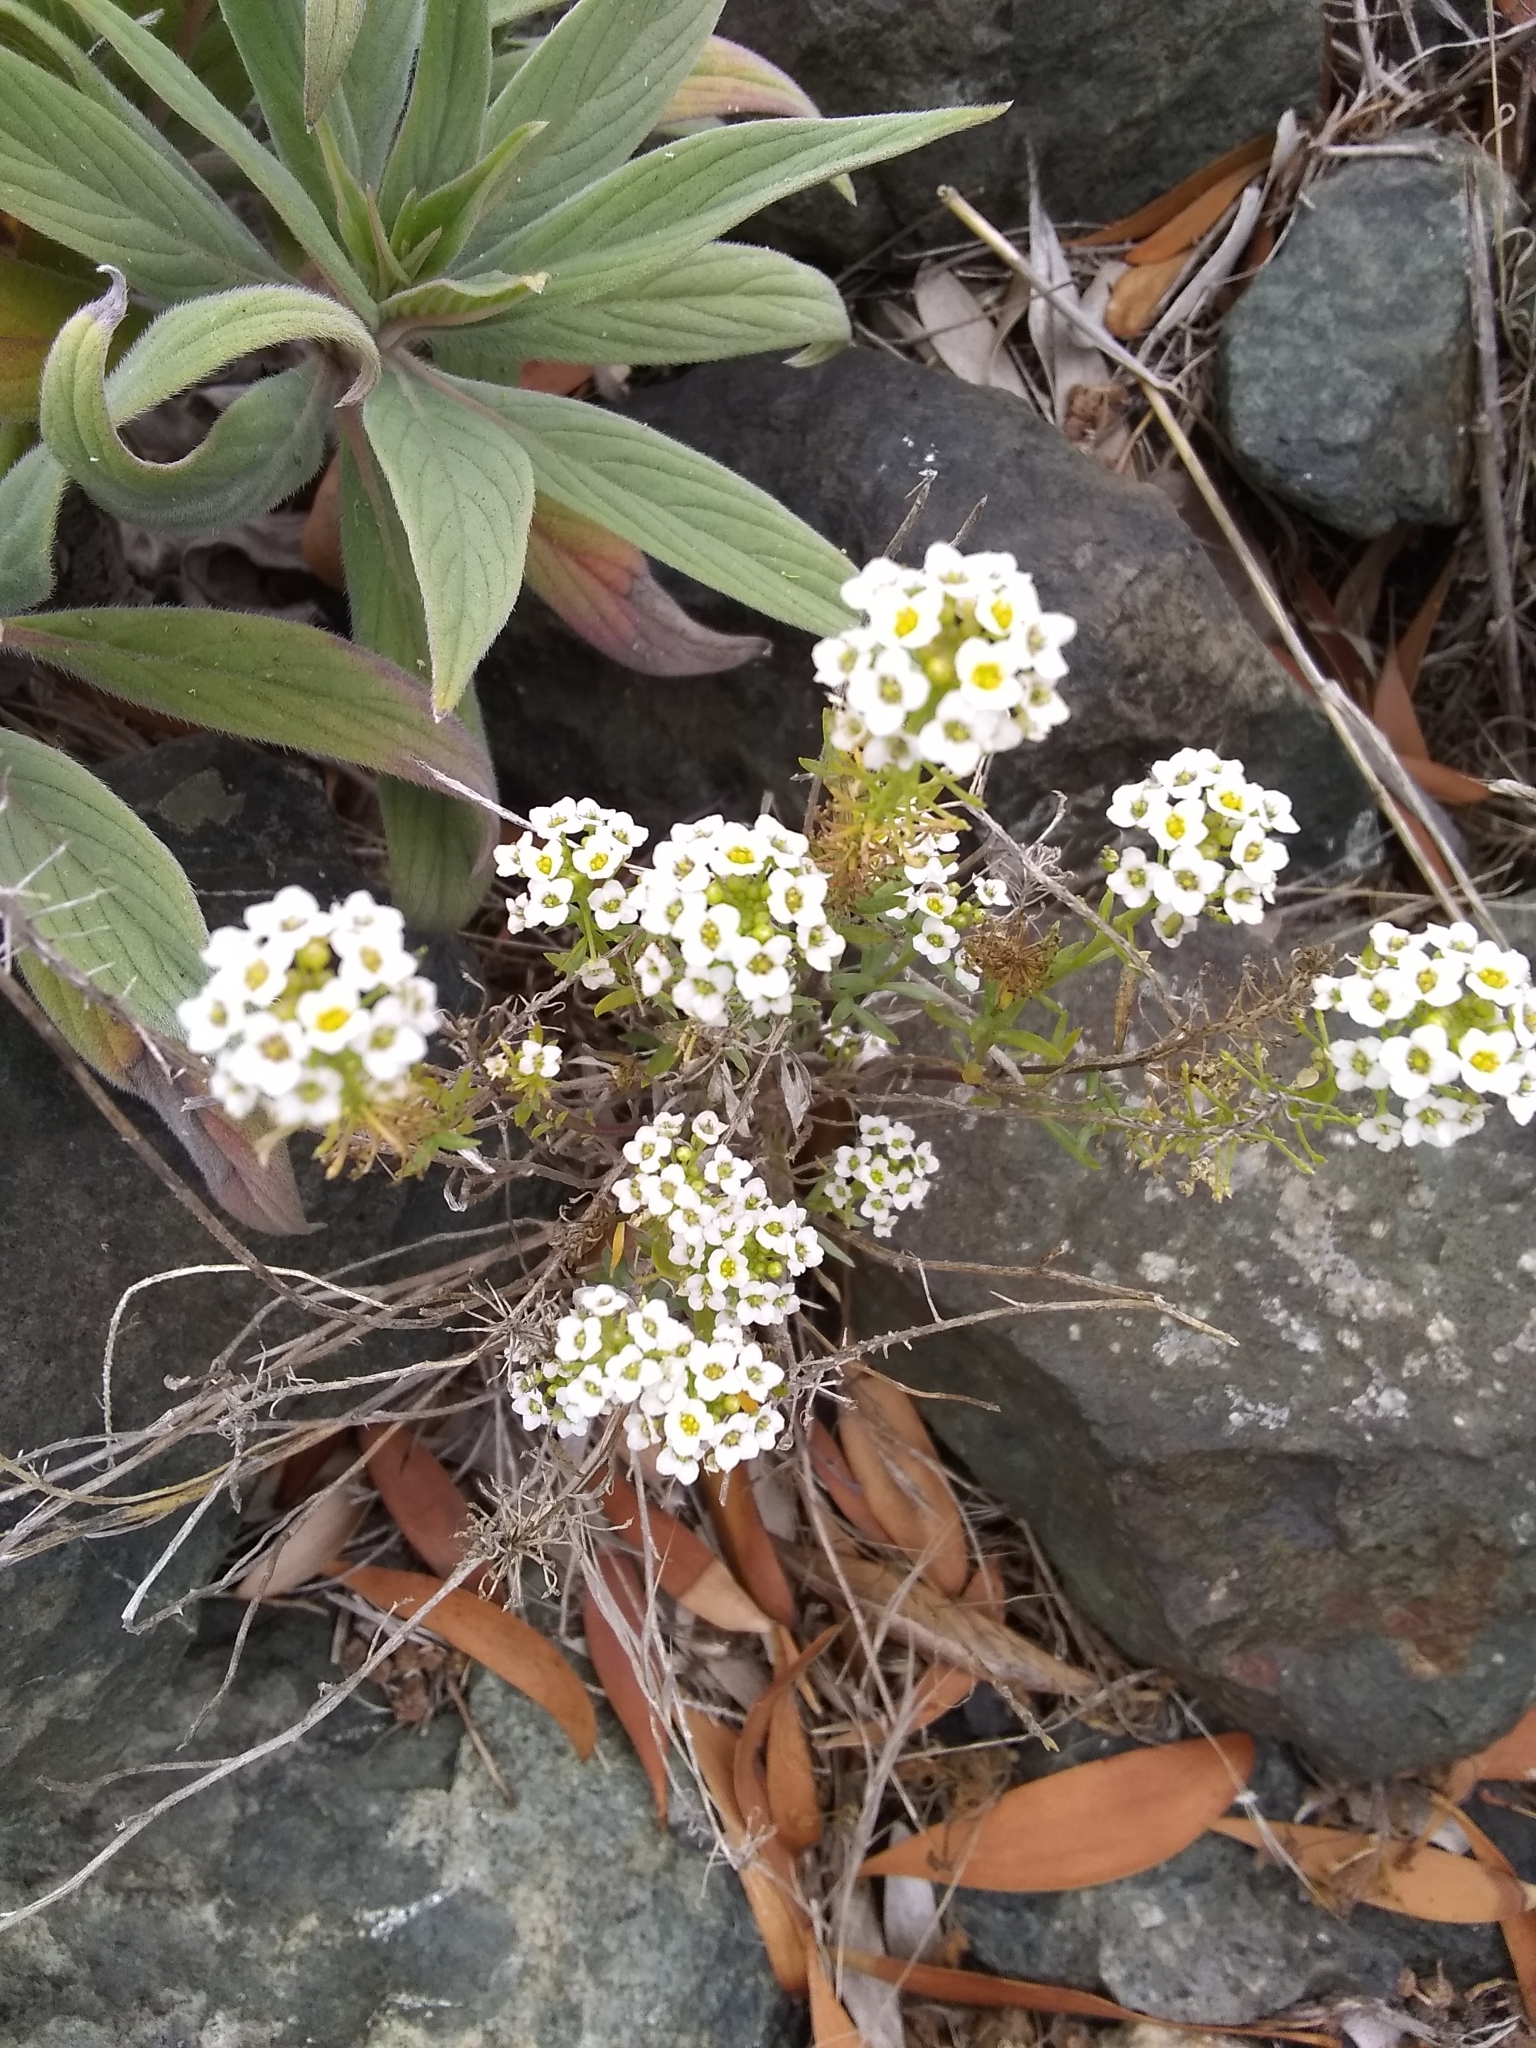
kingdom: Plantae
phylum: Tracheophyta
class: Magnoliopsida
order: Brassicales
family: Brassicaceae
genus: Lobularia
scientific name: Lobularia maritima
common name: Sweet alison
